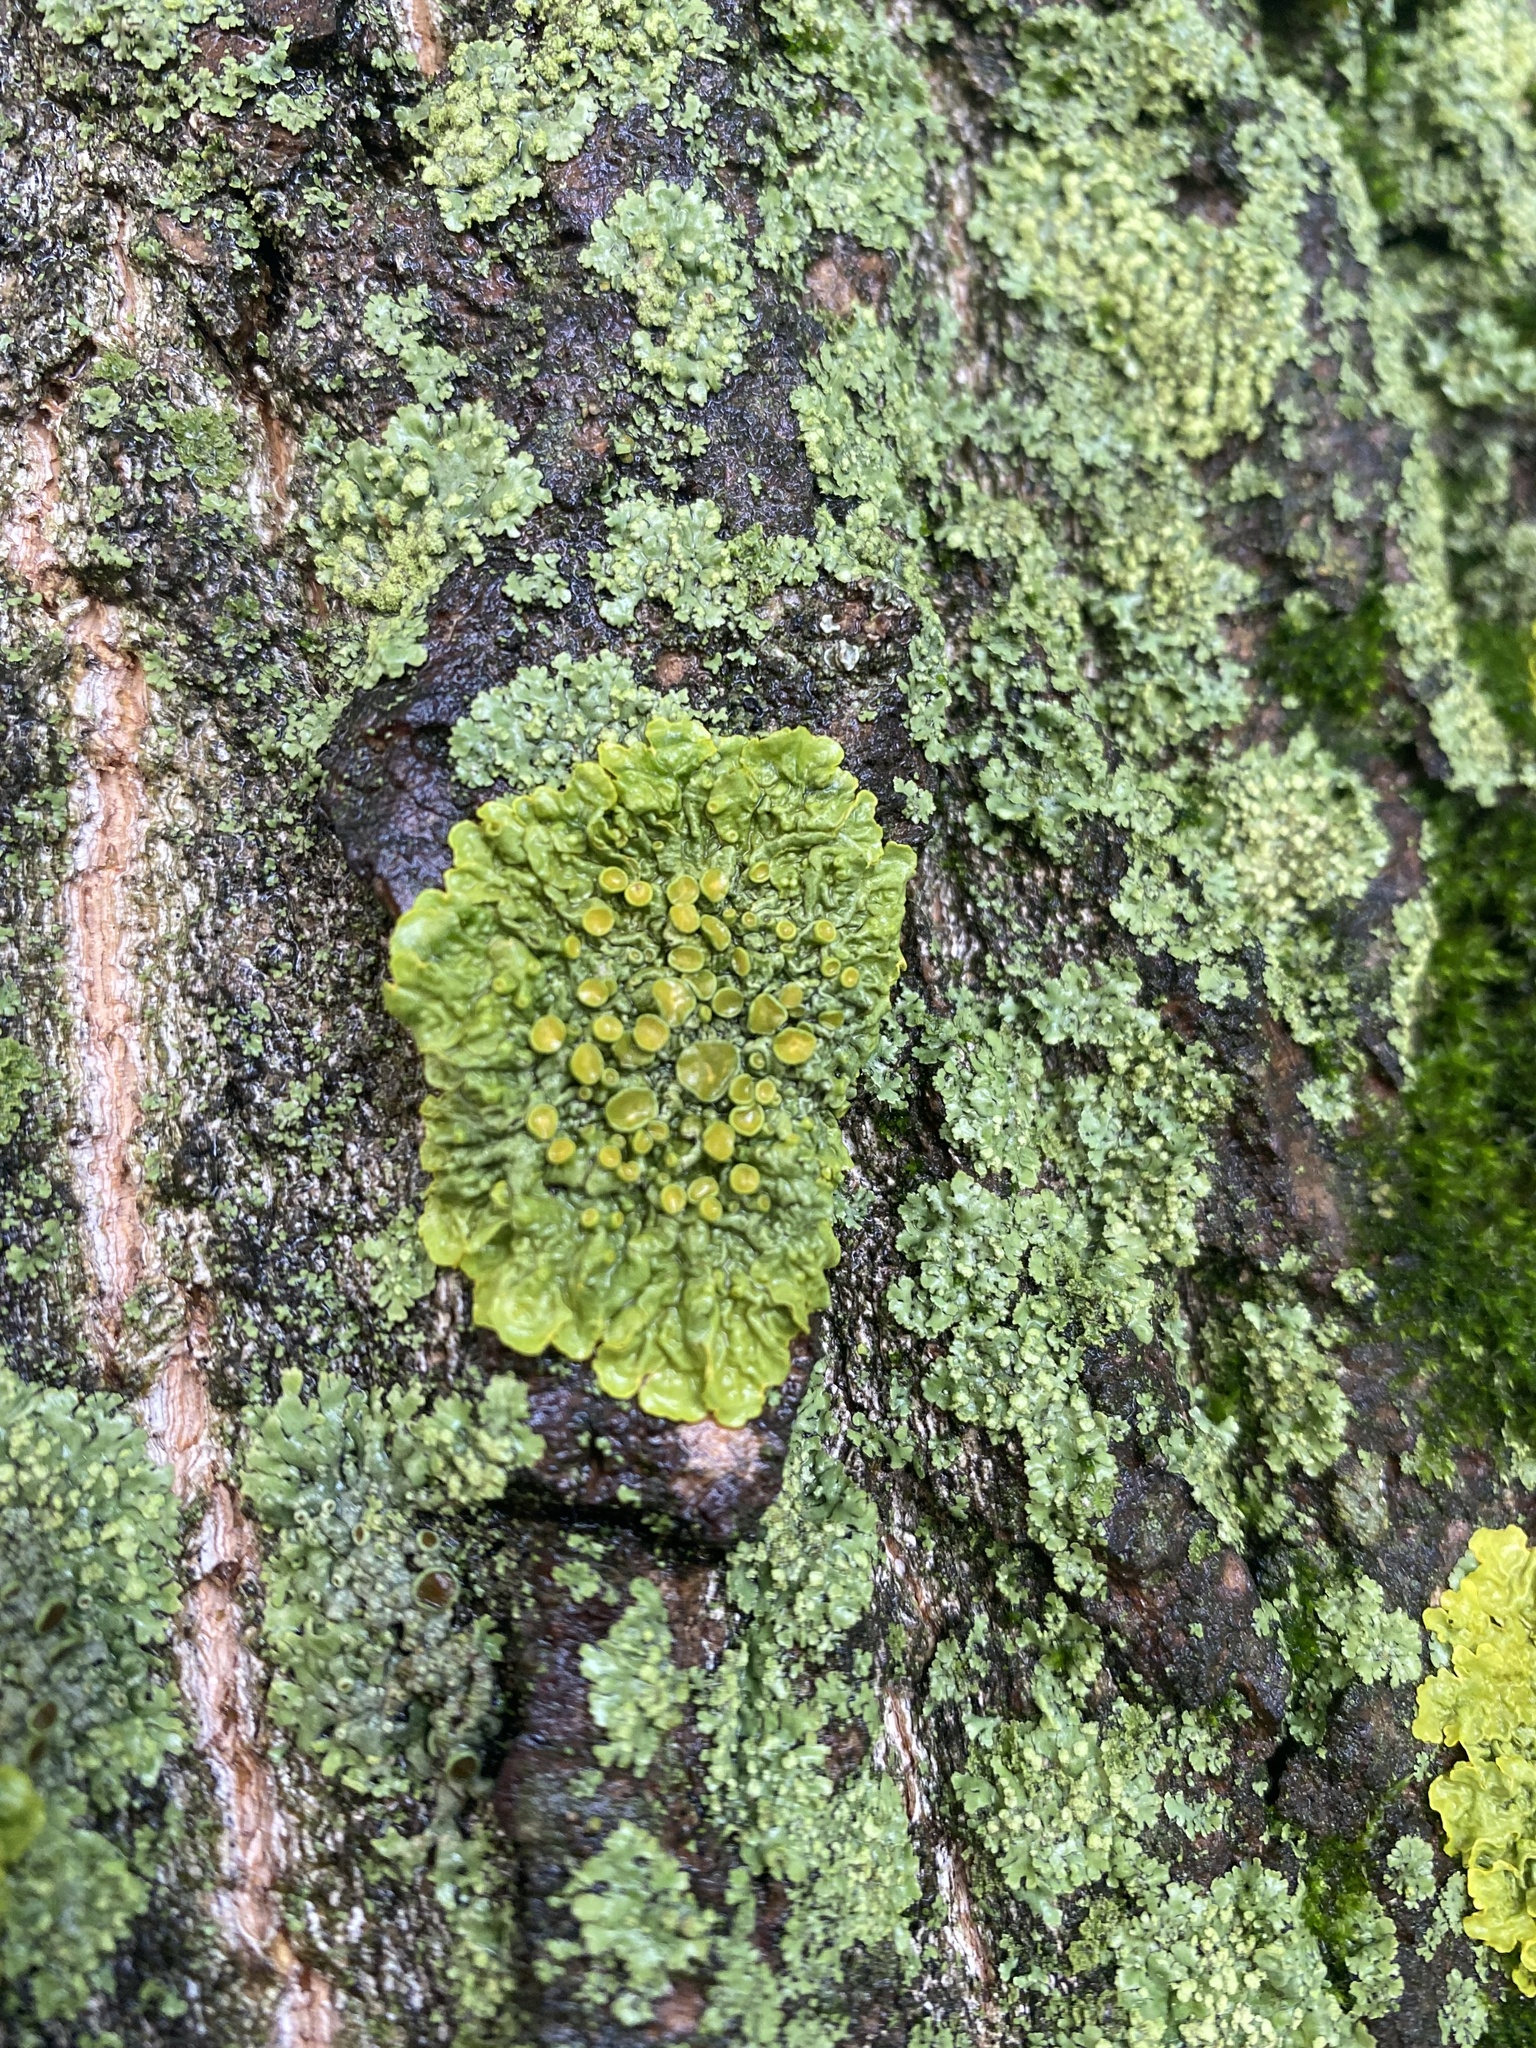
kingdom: Fungi
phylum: Ascomycota
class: Lecanoromycetes
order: Teloschistales
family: Teloschistaceae
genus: Xanthoria
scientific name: Xanthoria parietina
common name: Common orange lichen
